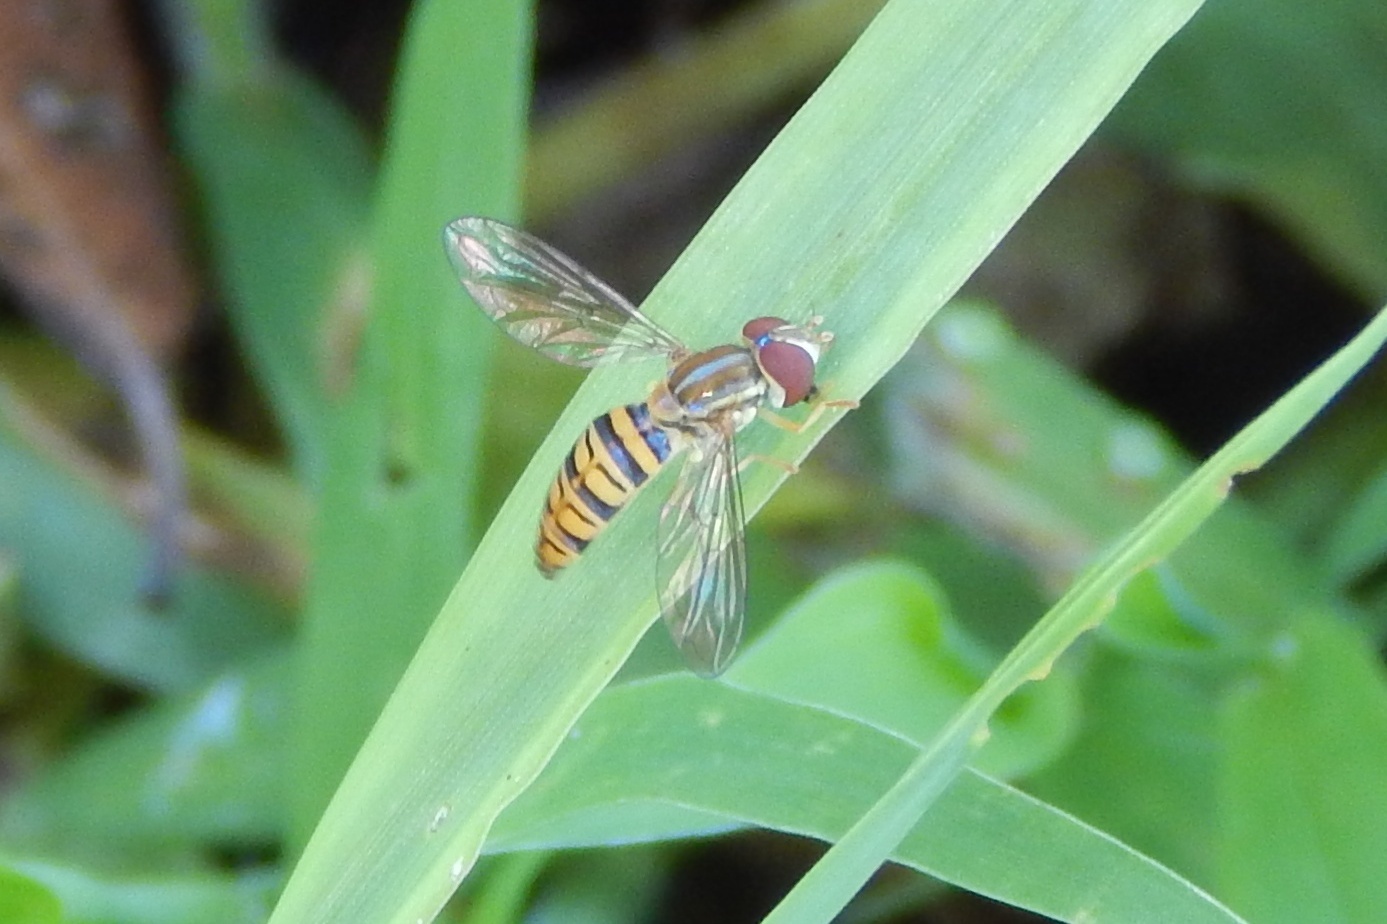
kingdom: Animalia
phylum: Arthropoda
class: Insecta
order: Diptera
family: Syrphidae
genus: Toxomerus
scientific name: Toxomerus politus
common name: Maize calligrapher
